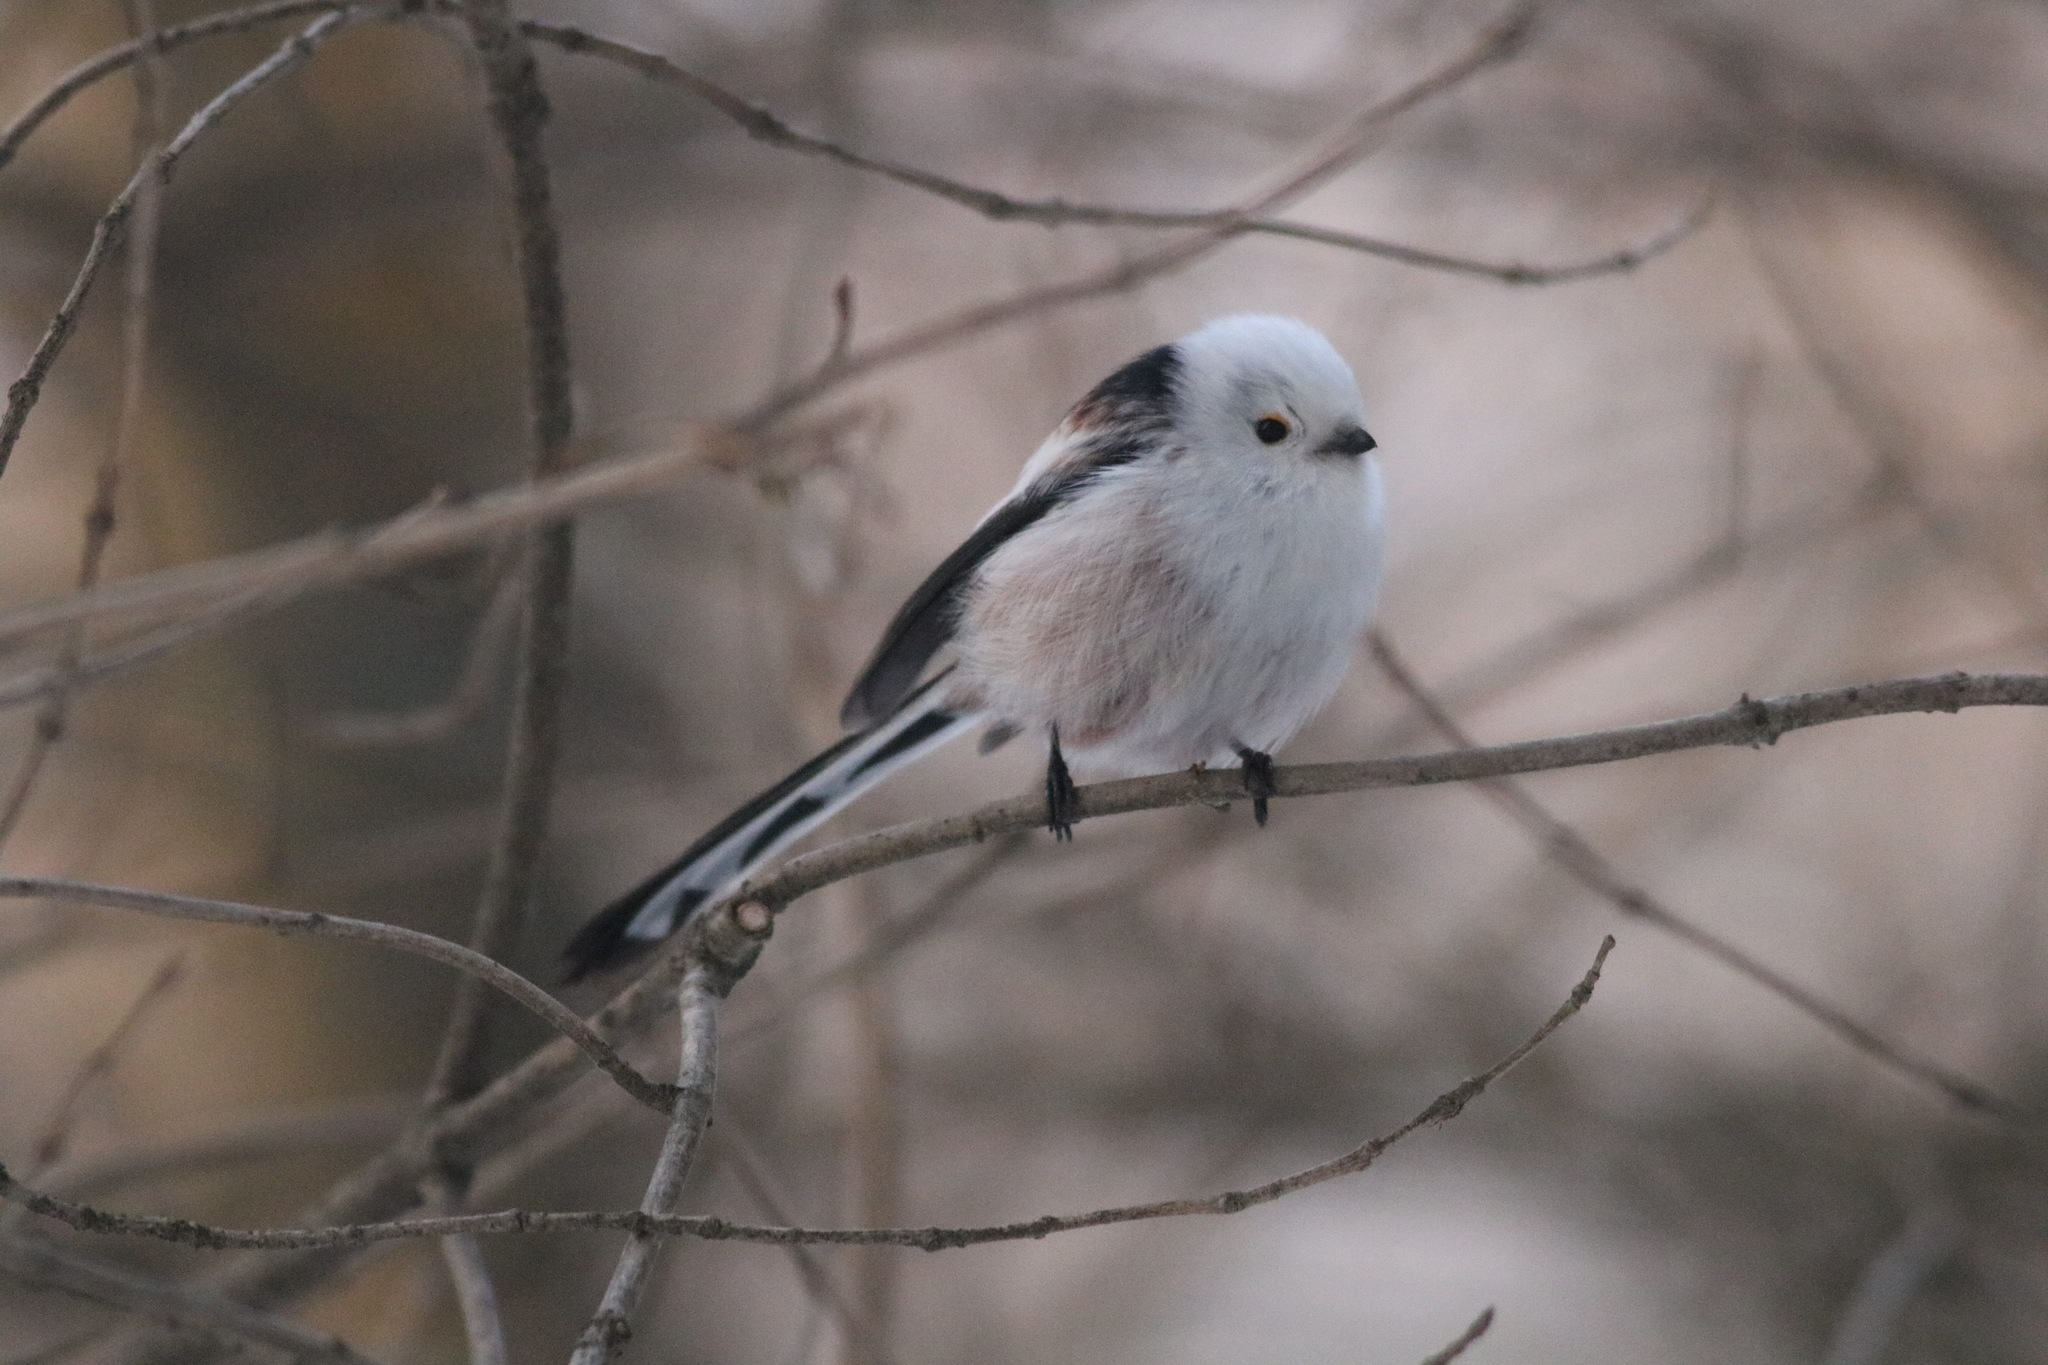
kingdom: Animalia
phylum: Chordata
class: Aves
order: Passeriformes
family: Aegithalidae
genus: Aegithalos
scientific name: Aegithalos caudatus
